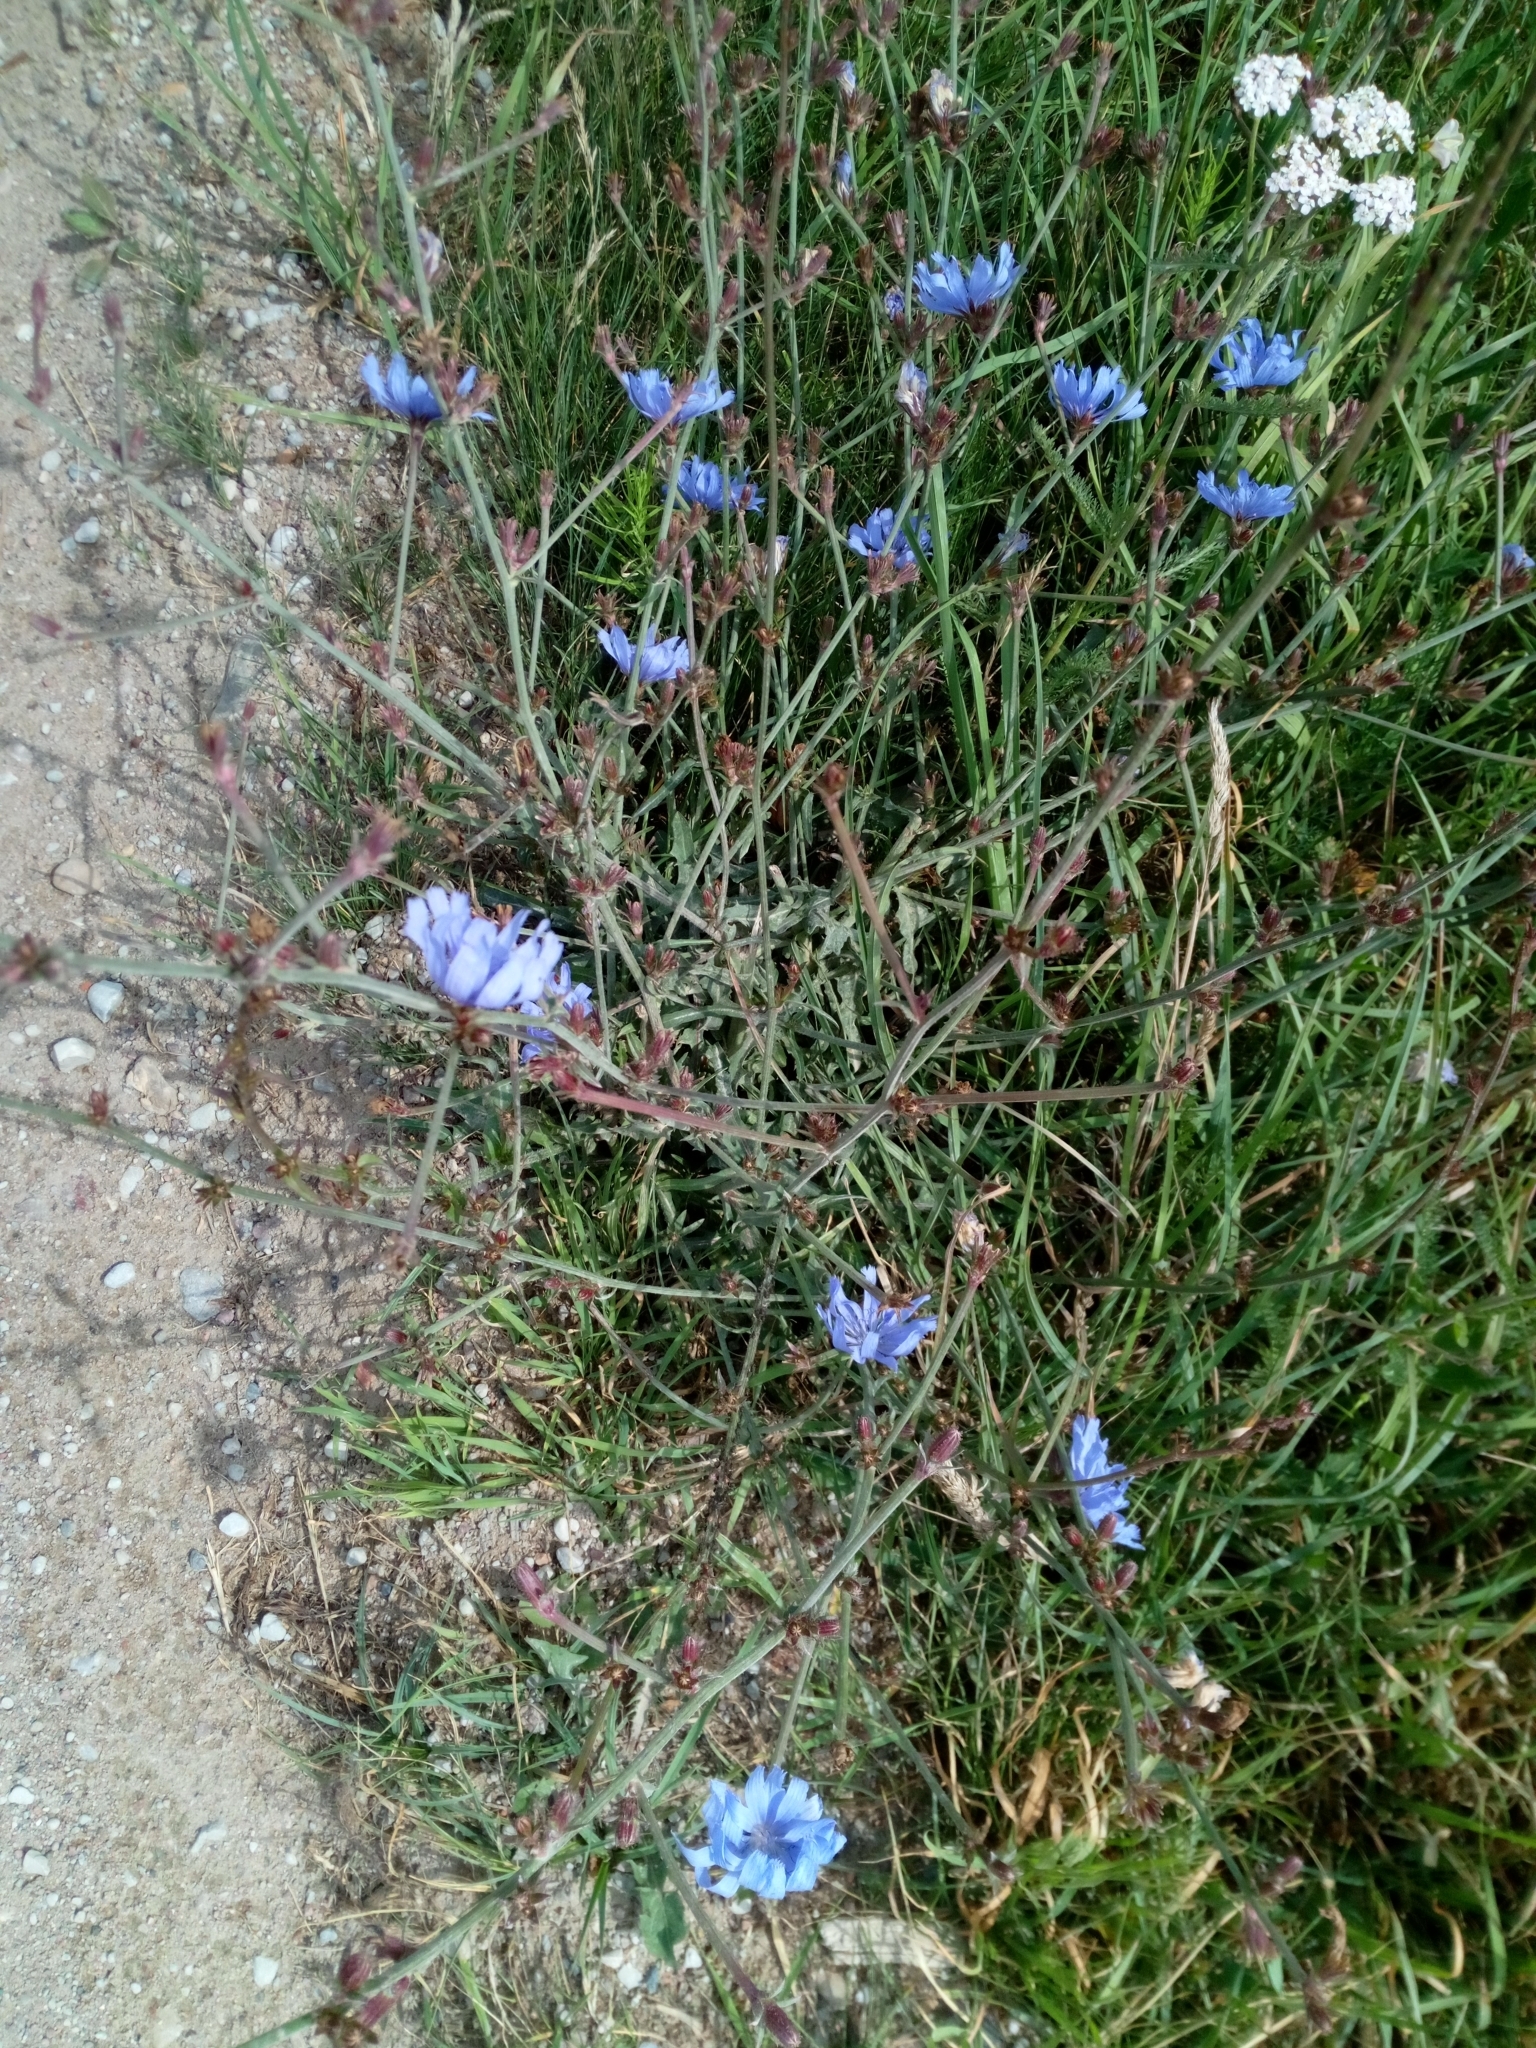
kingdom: Plantae
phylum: Tracheophyta
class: Magnoliopsida
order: Asterales
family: Asteraceae
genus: Cichorium
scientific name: Cichorium intybus
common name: Chicory
